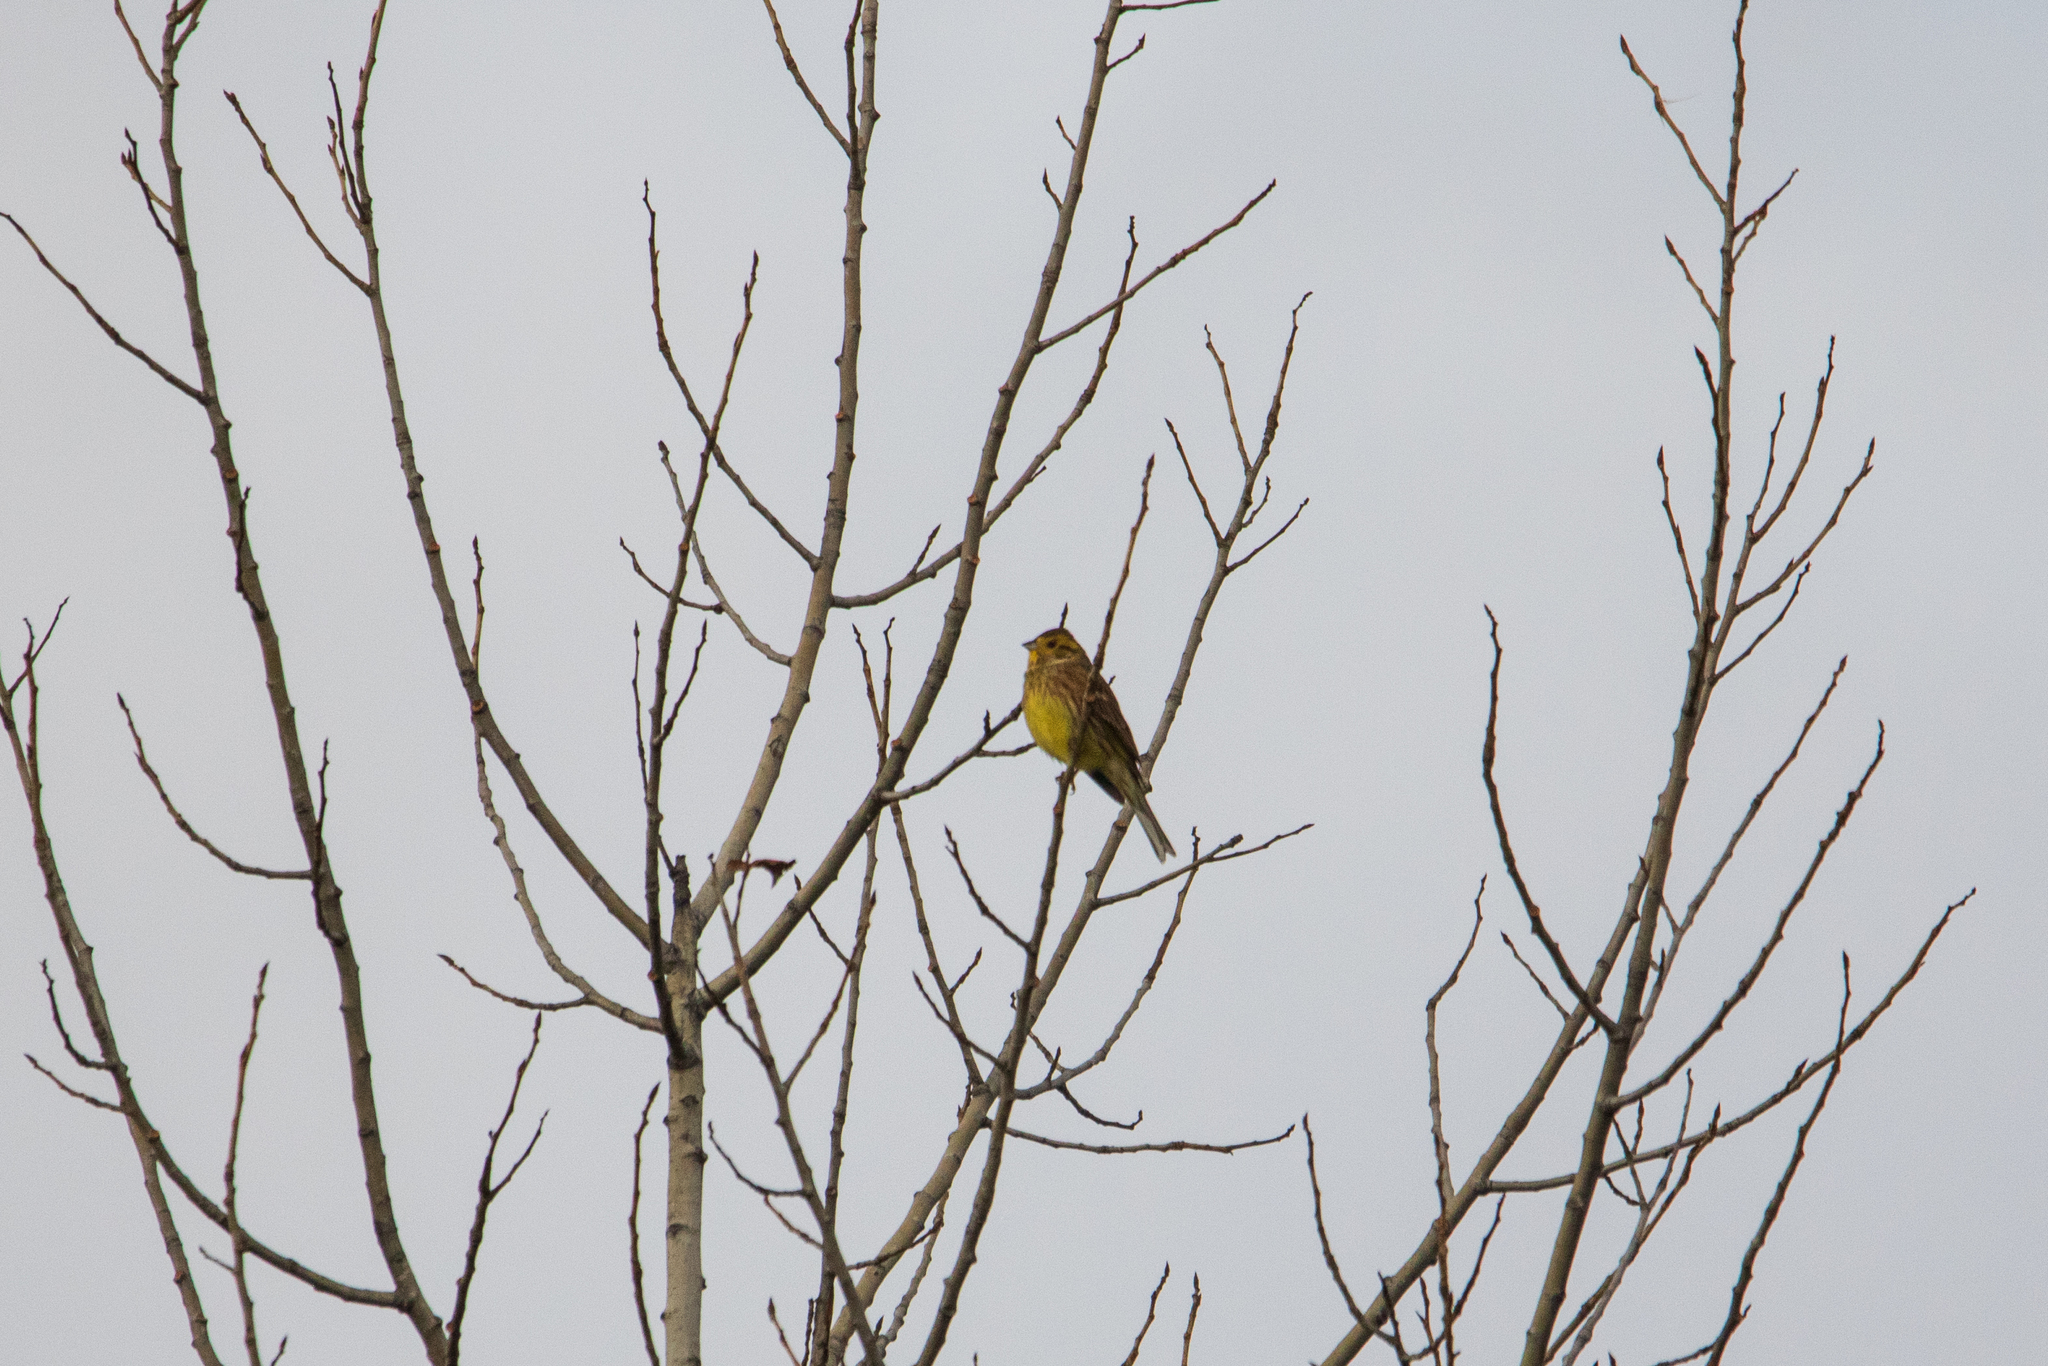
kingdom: Animalia
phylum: Chordata
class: Aves
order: Passeriformes
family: Emberizidae
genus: Emberiza
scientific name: Emberiza citrinella
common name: Yellowhammer
